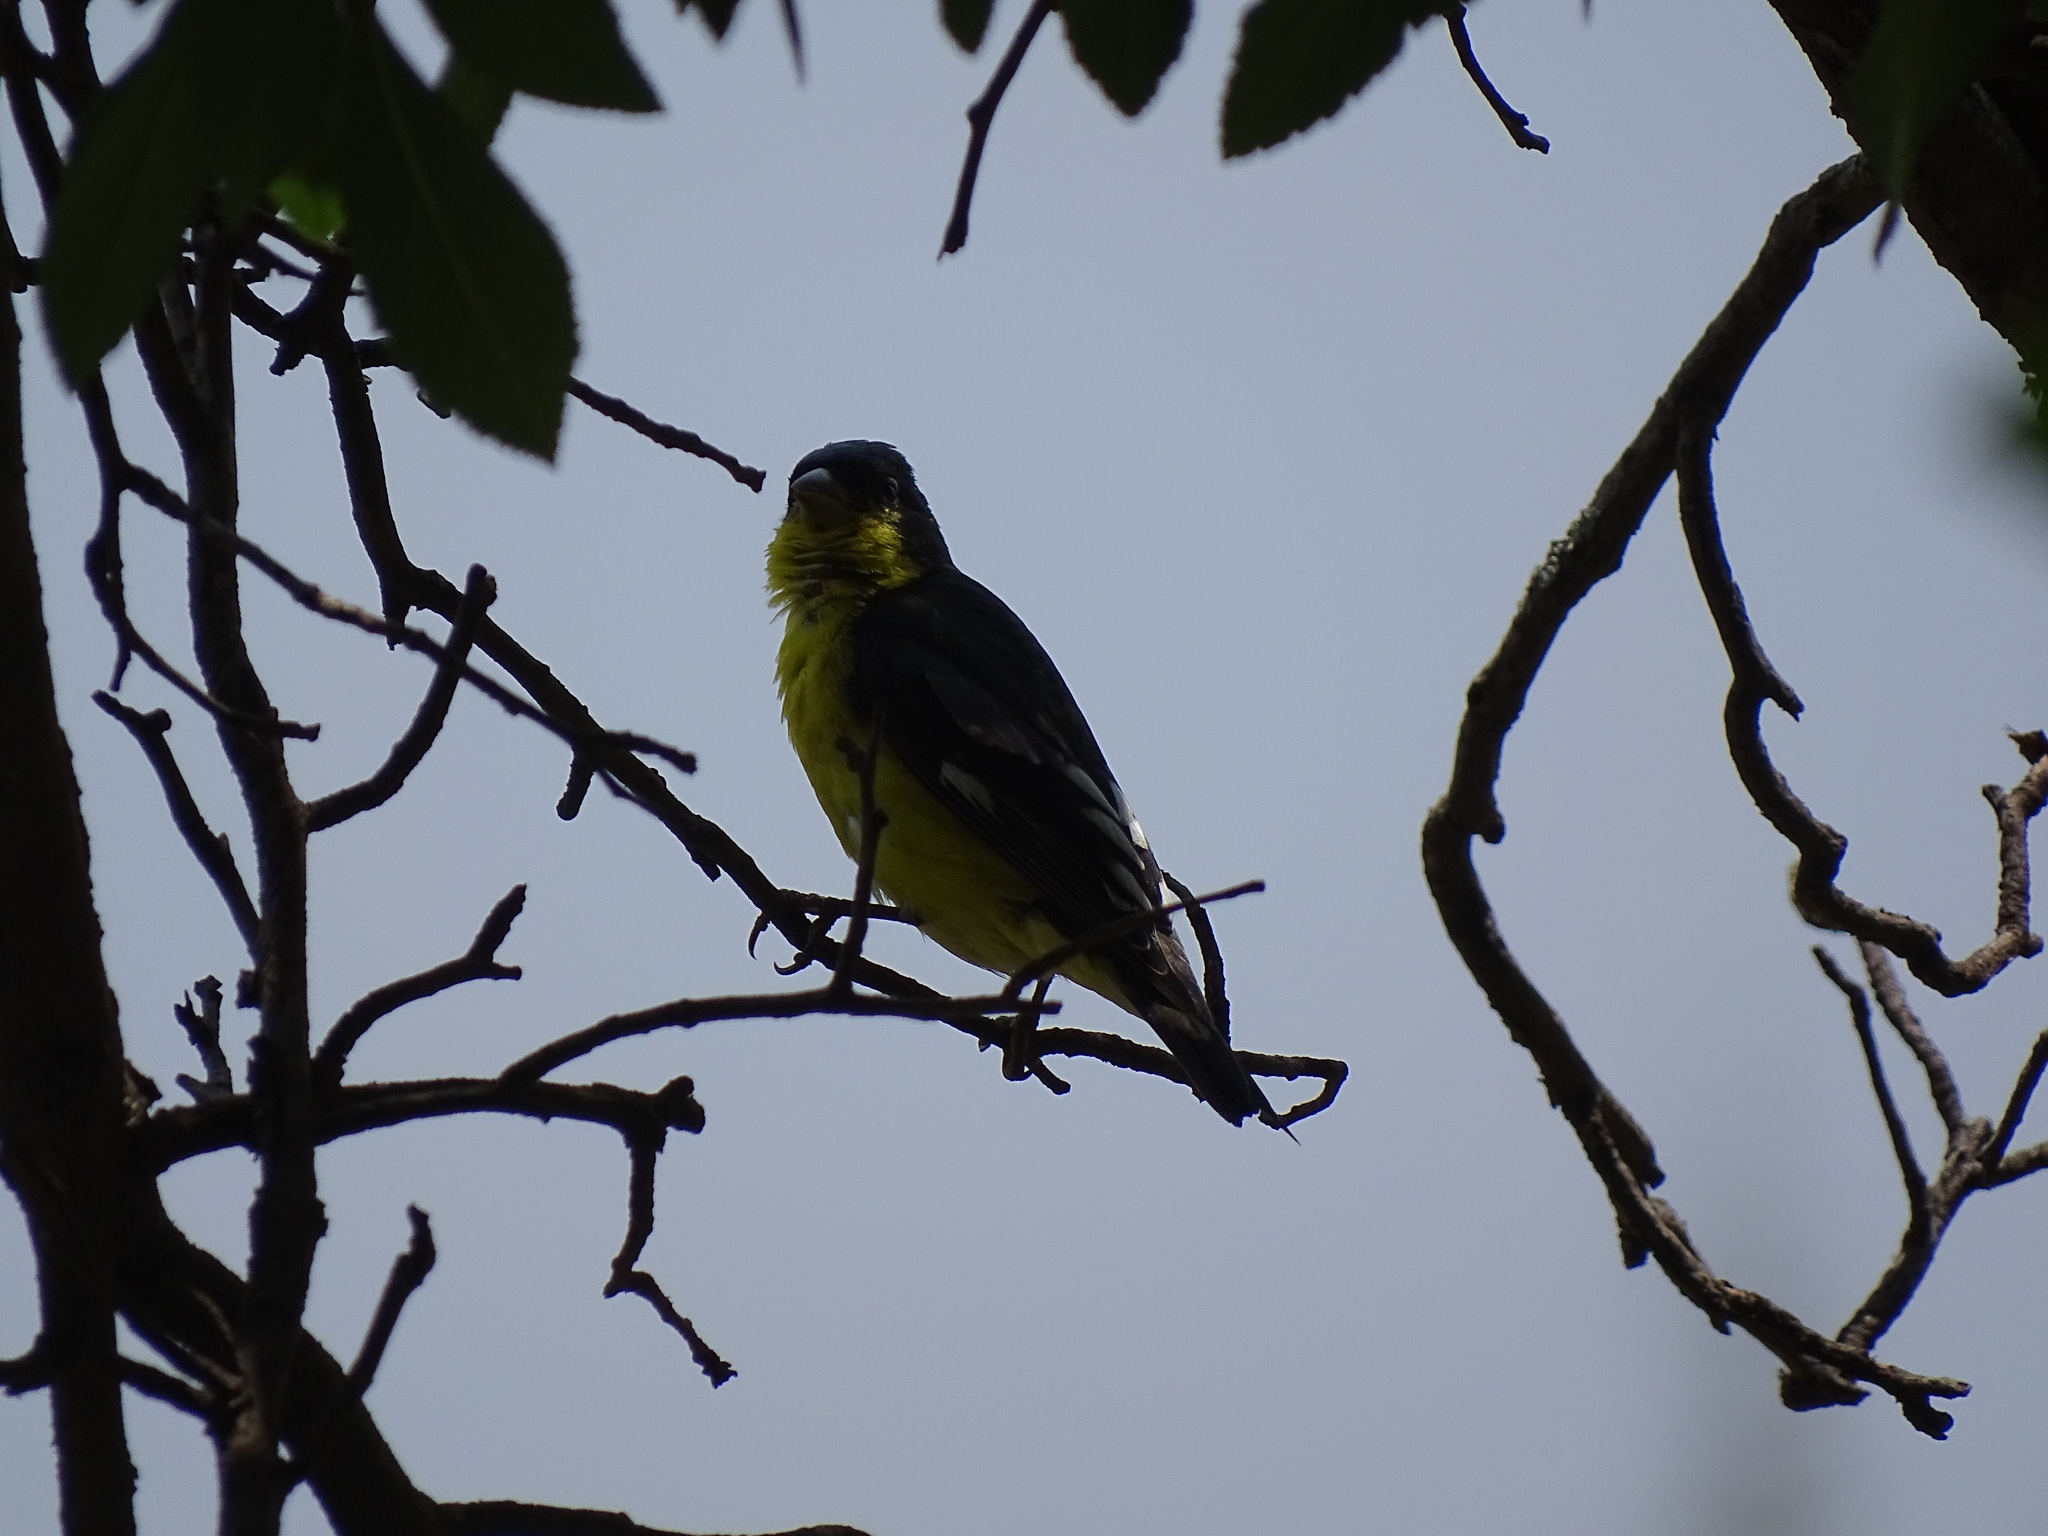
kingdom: Animalia
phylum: Chordata
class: Aves
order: Passeriformes
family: Fringillidae
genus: Spinus
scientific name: Spinus psaltria
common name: Lesser goldfinch
